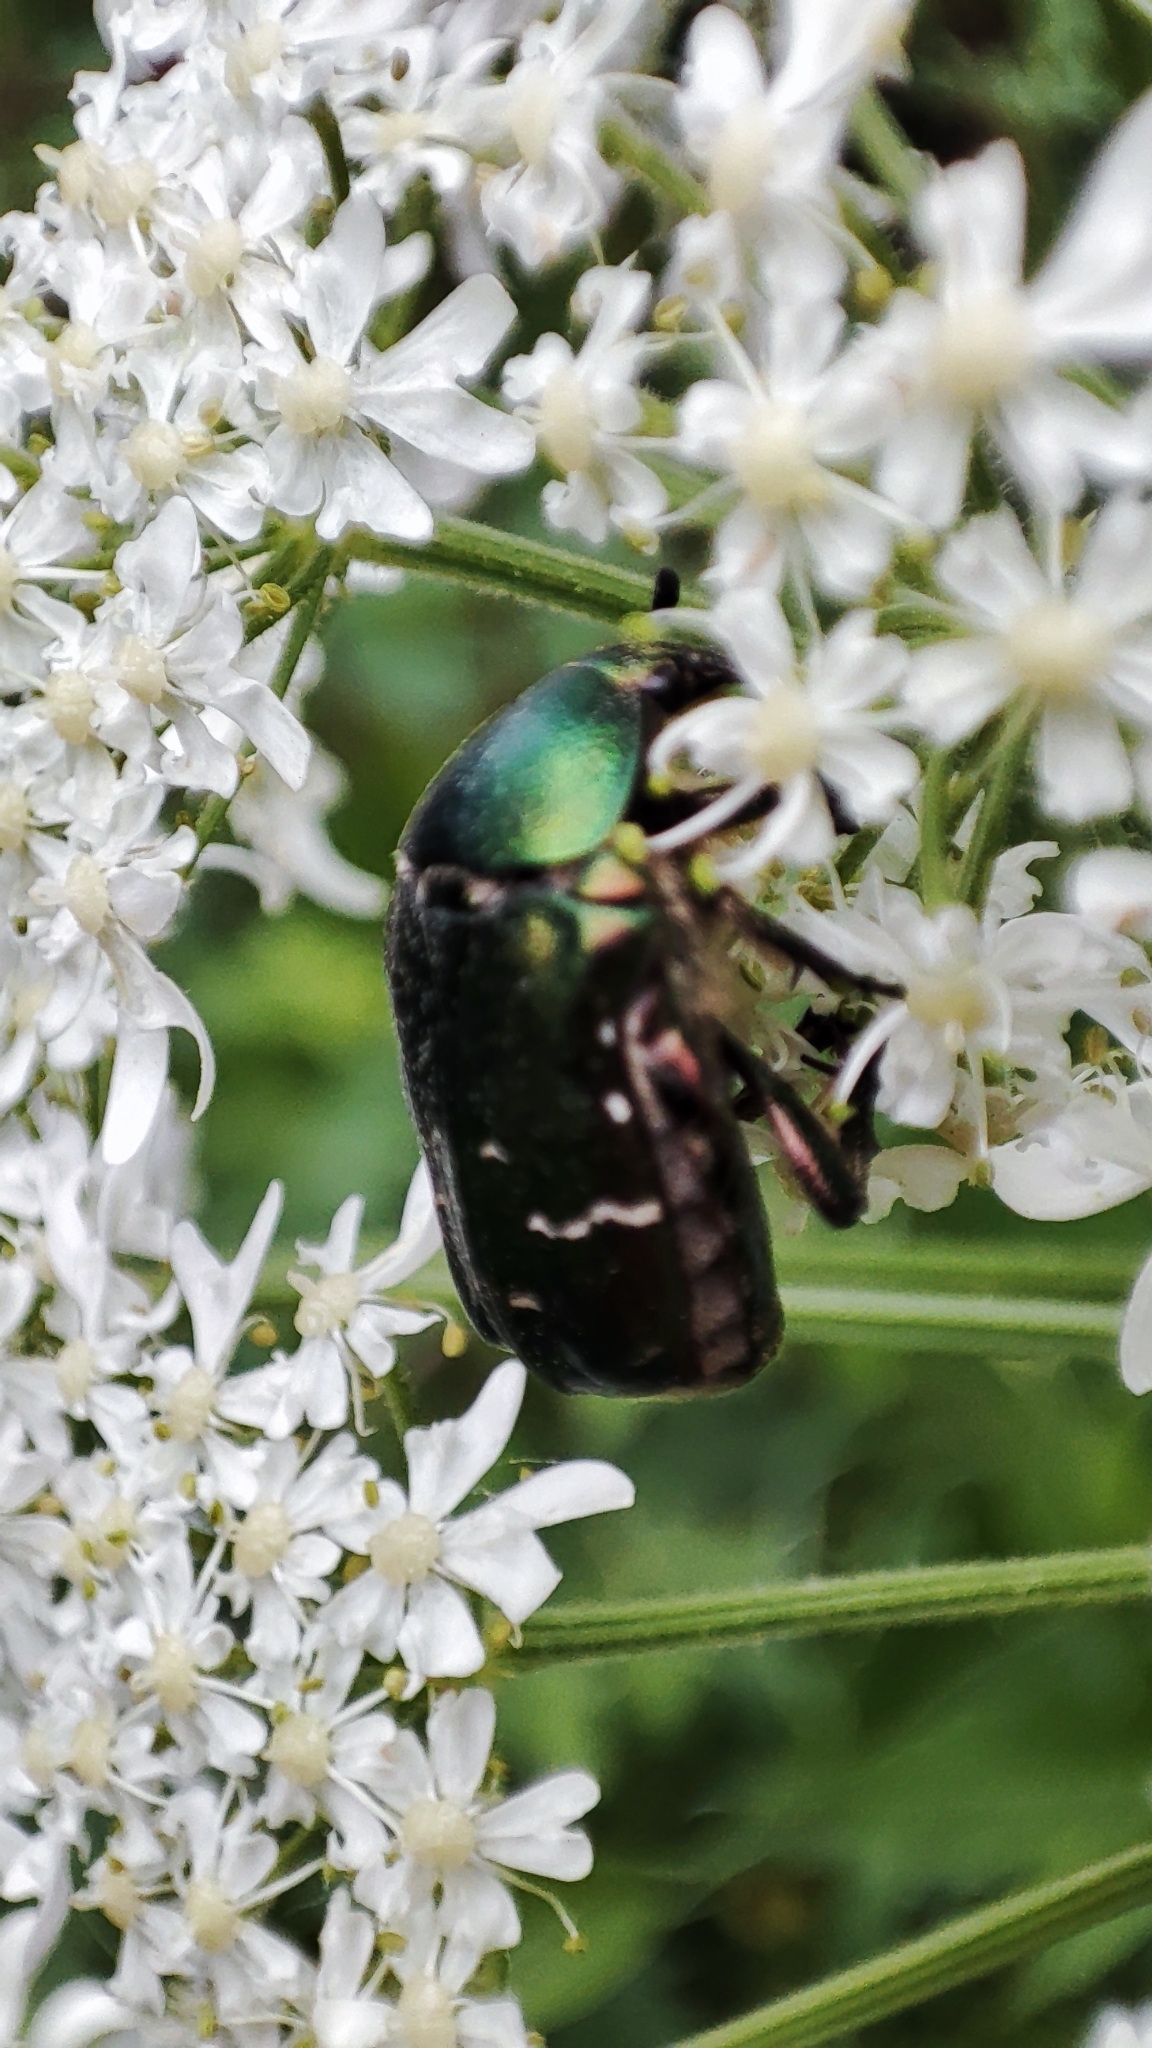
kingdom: Animalia
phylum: Arthropoda
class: Insecta
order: Coleoptera
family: Scarabaeidae
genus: Cetonia
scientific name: Cetonia aurata
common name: Rose chafer
